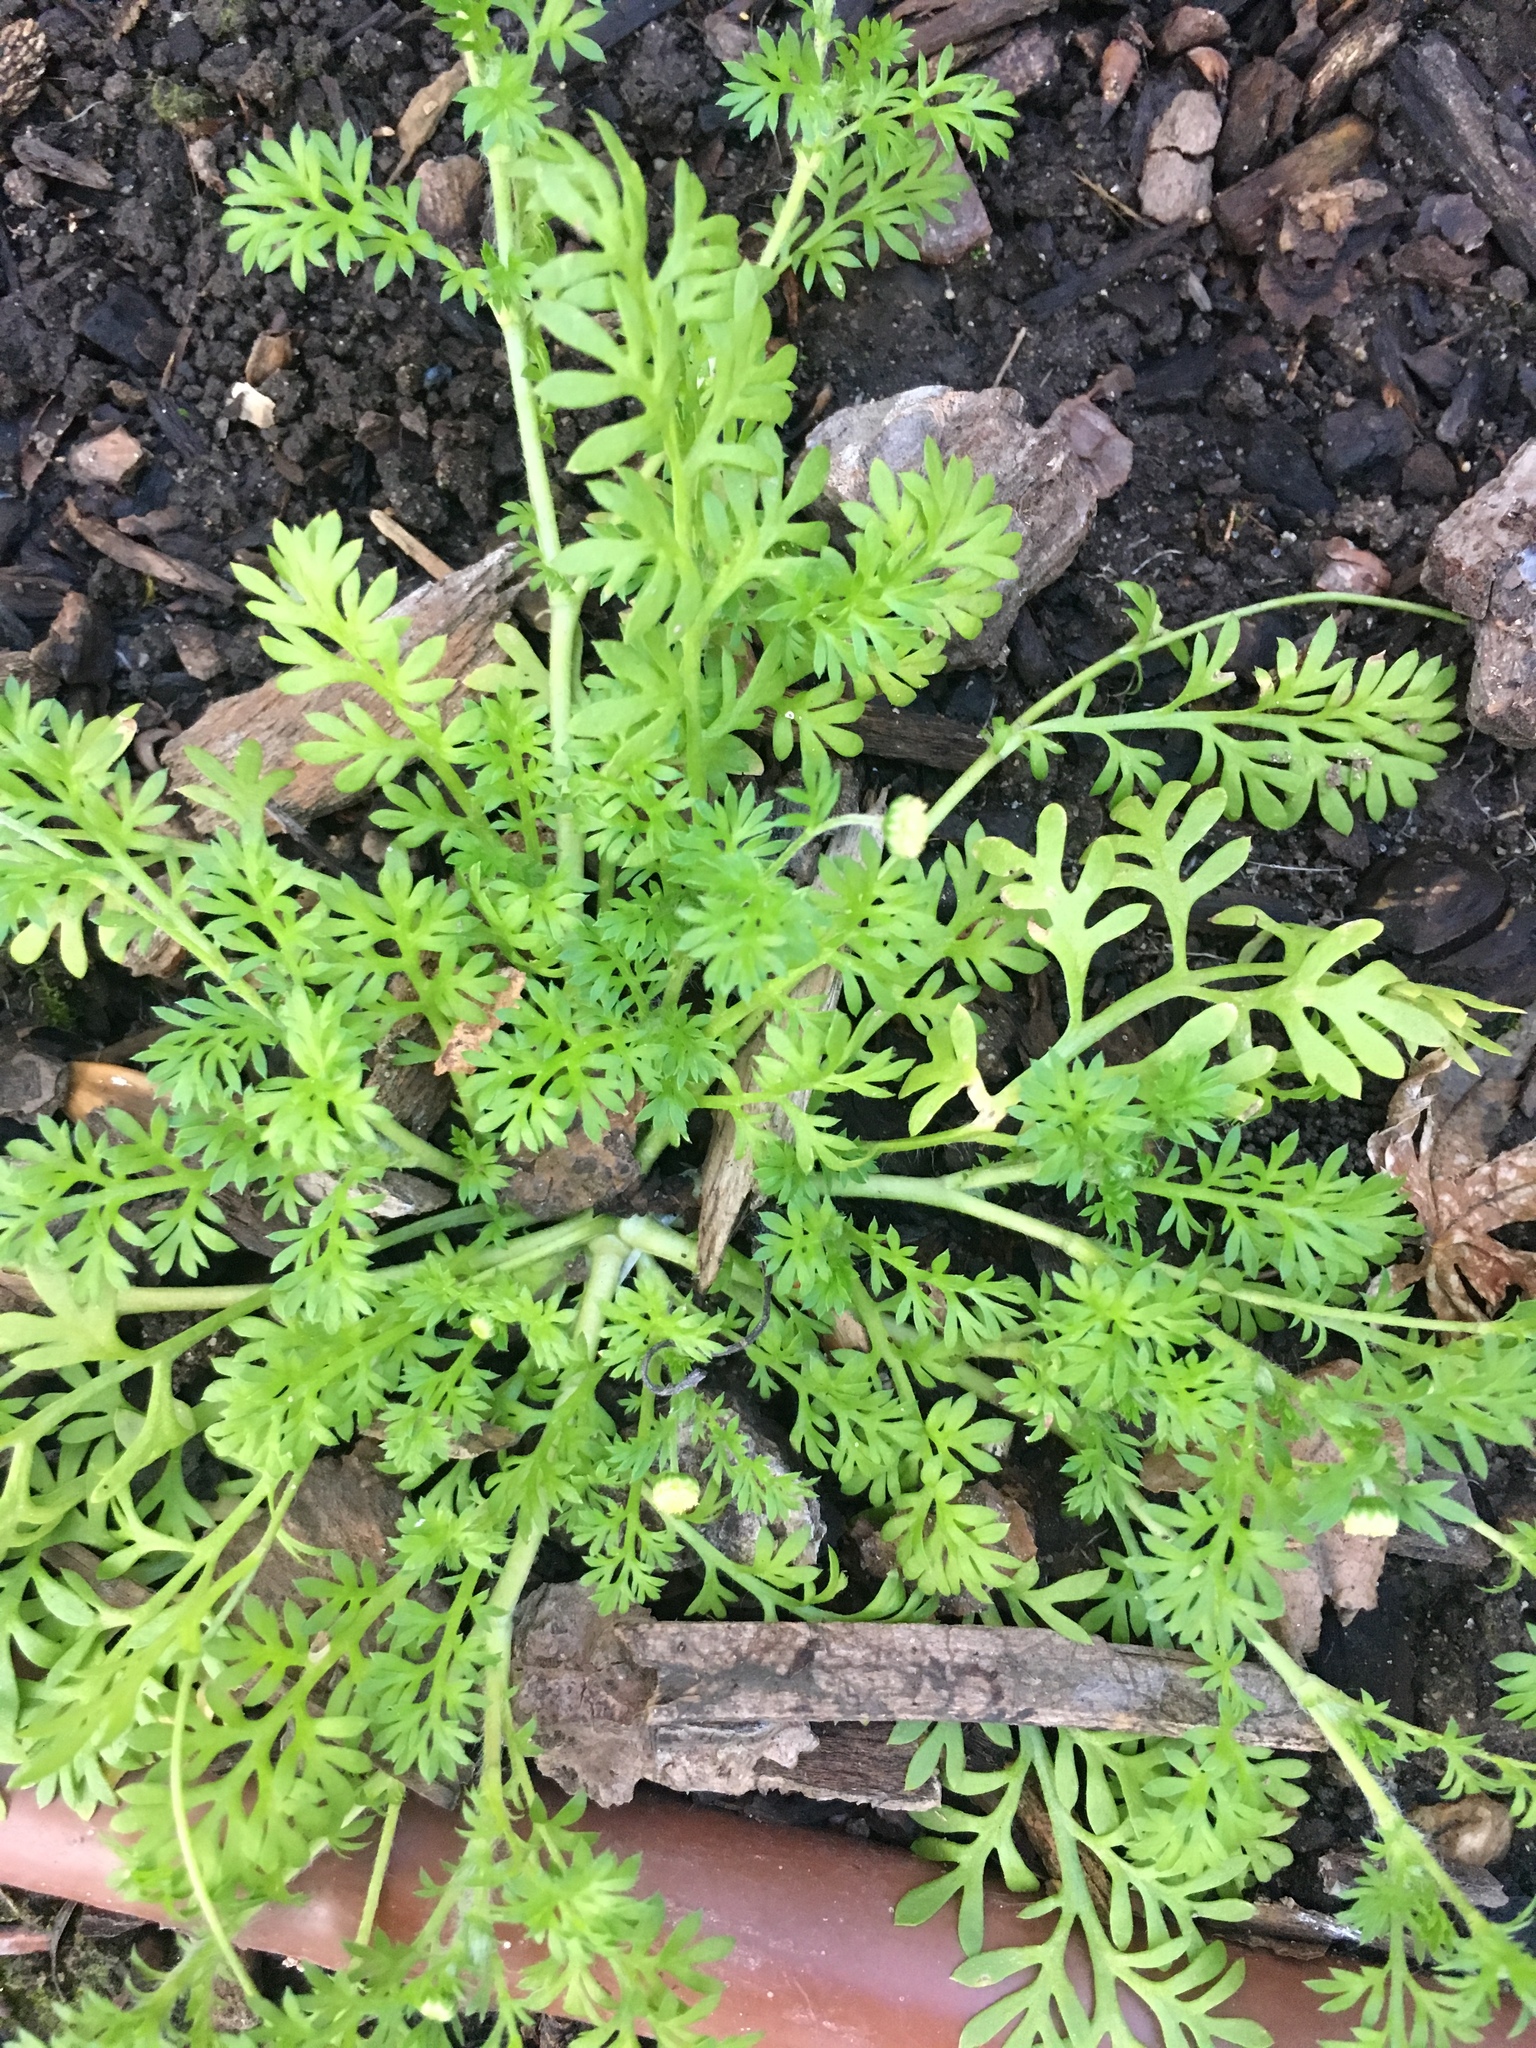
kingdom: Plantae
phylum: Tracheophyta
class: Magnoliopsida
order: Asterales
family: Asteraceae
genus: Cotula
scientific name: Cotula australis
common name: Australian waterbuttons
